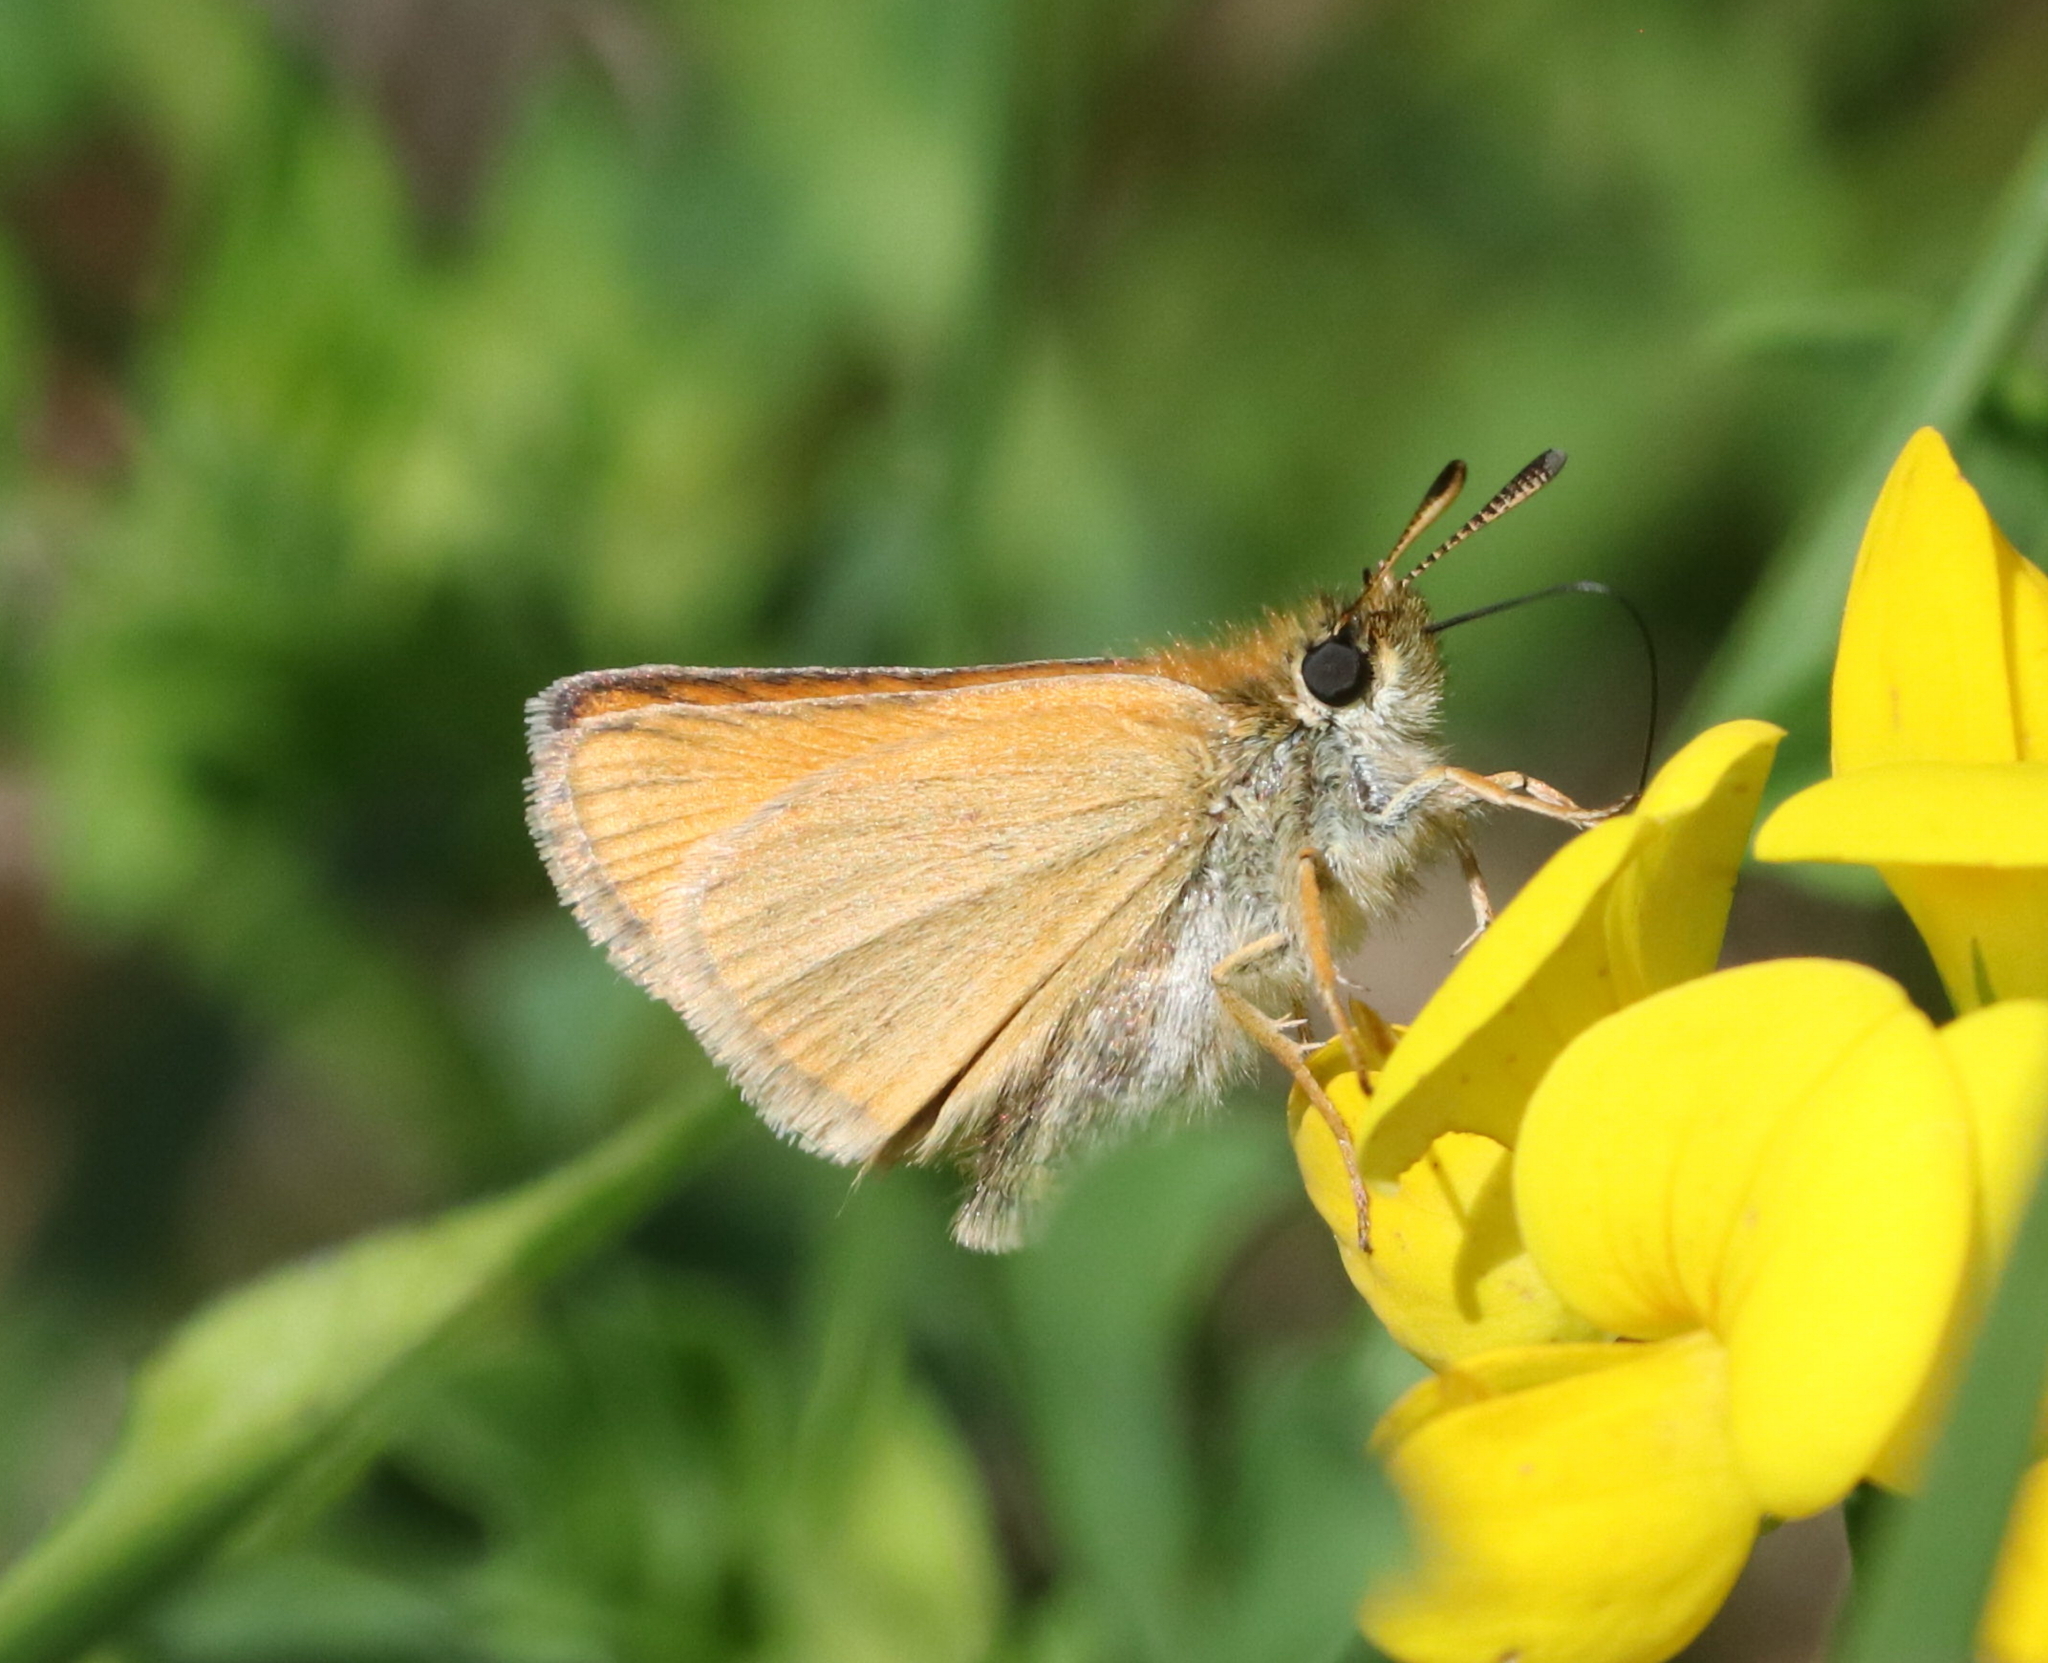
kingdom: Animalia
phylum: Arthropoda
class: Insecta
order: Lepidoptera
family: Hesperiidae
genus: Thymelicus
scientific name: Thymelicus lineola
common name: Essex skipper
